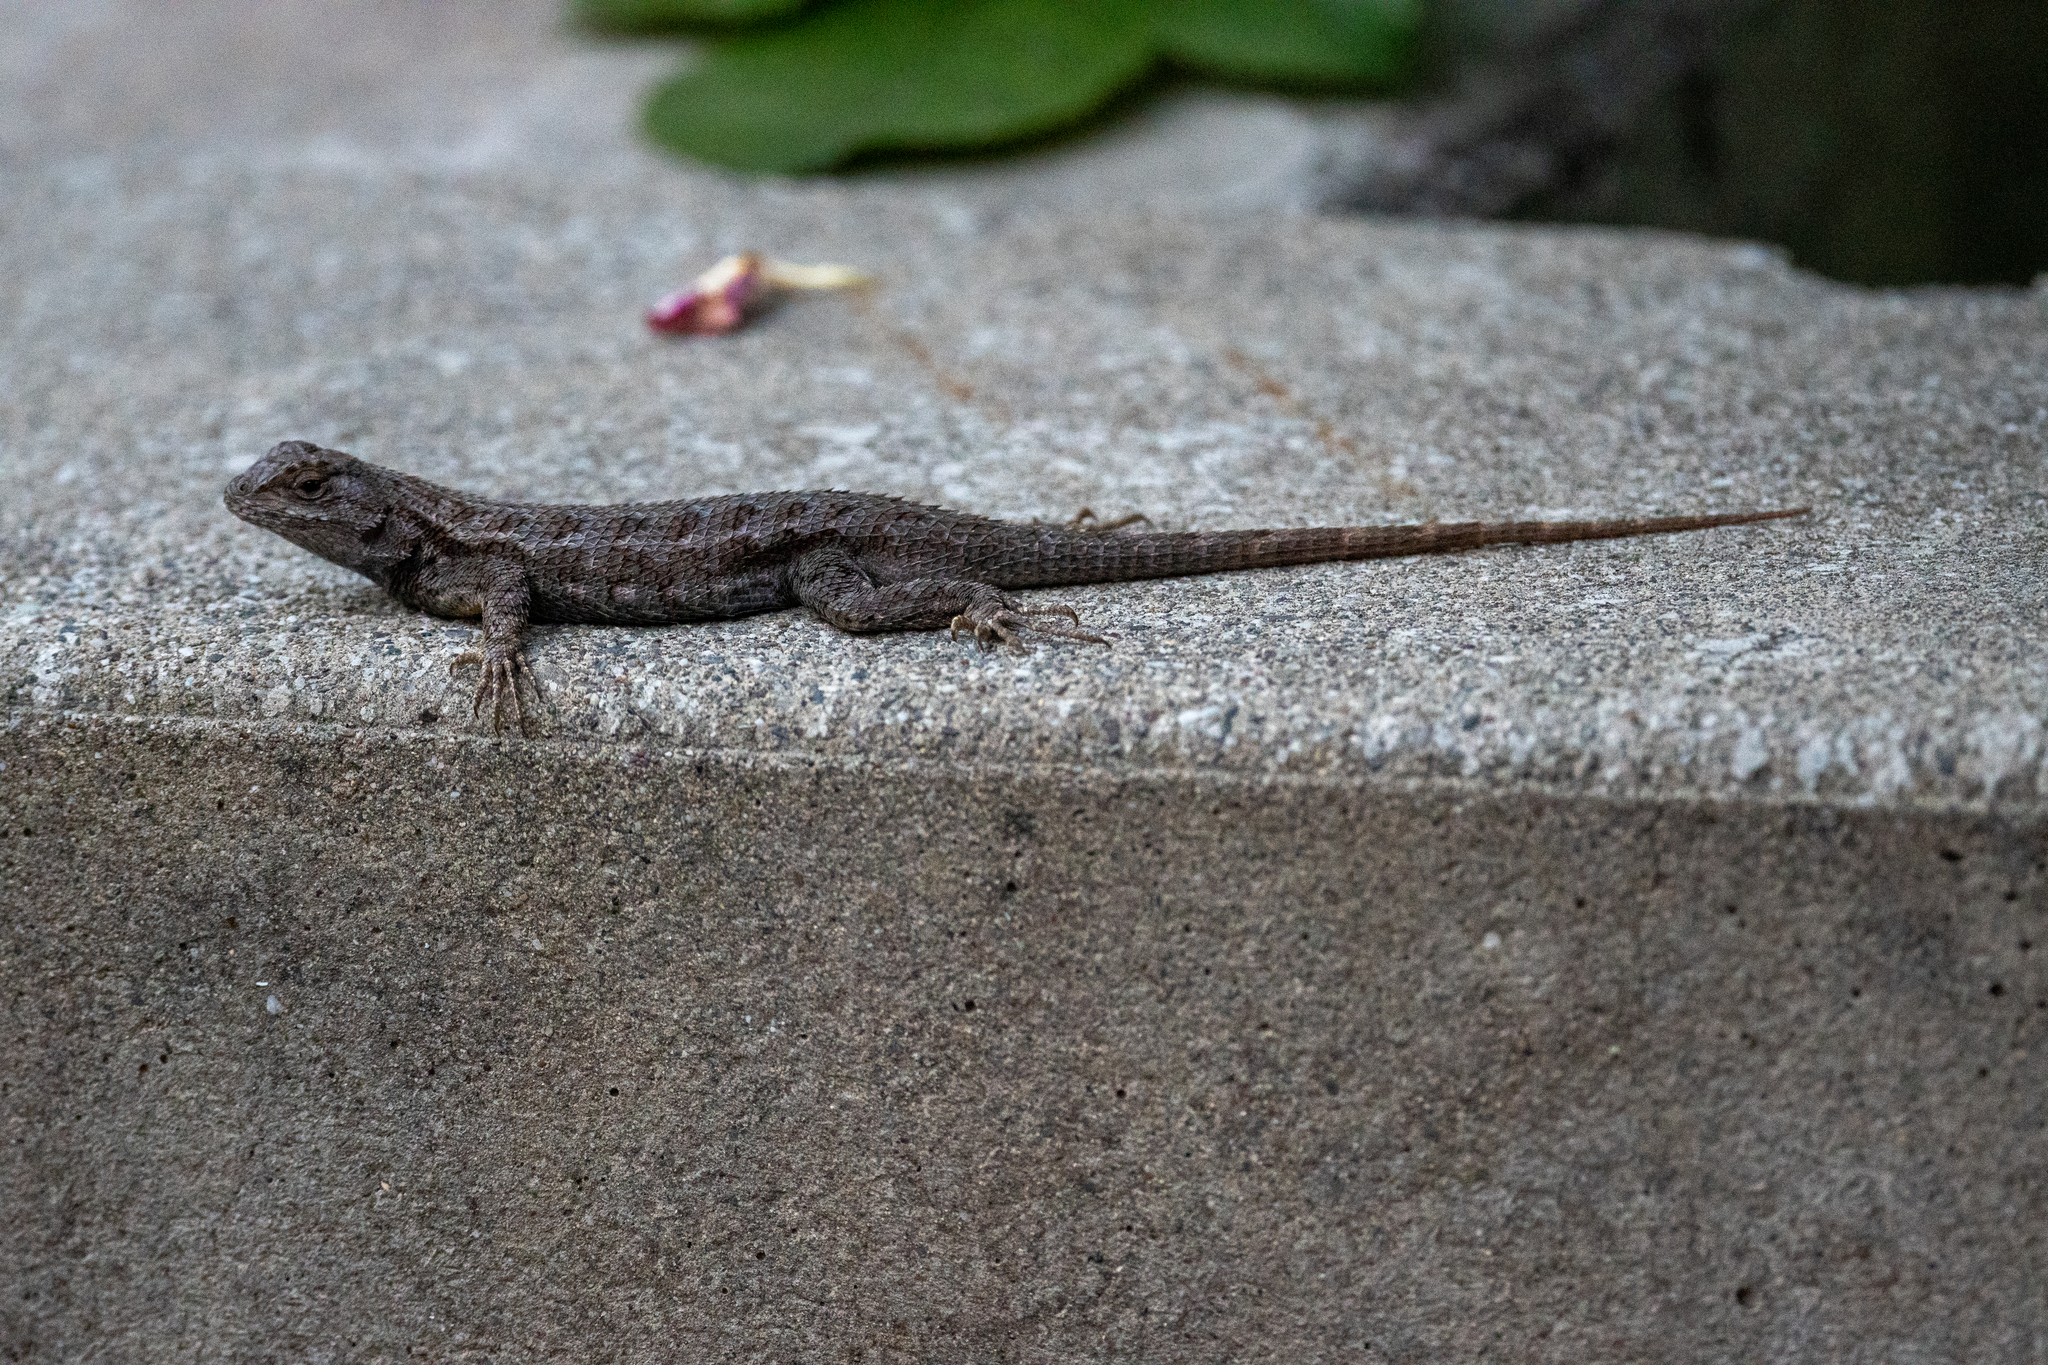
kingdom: Animalia
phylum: Chordata
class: Squamata
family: Phrynosomatidae
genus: Sceloporus
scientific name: Sceloporus occidentalis
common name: Western fence lizard
